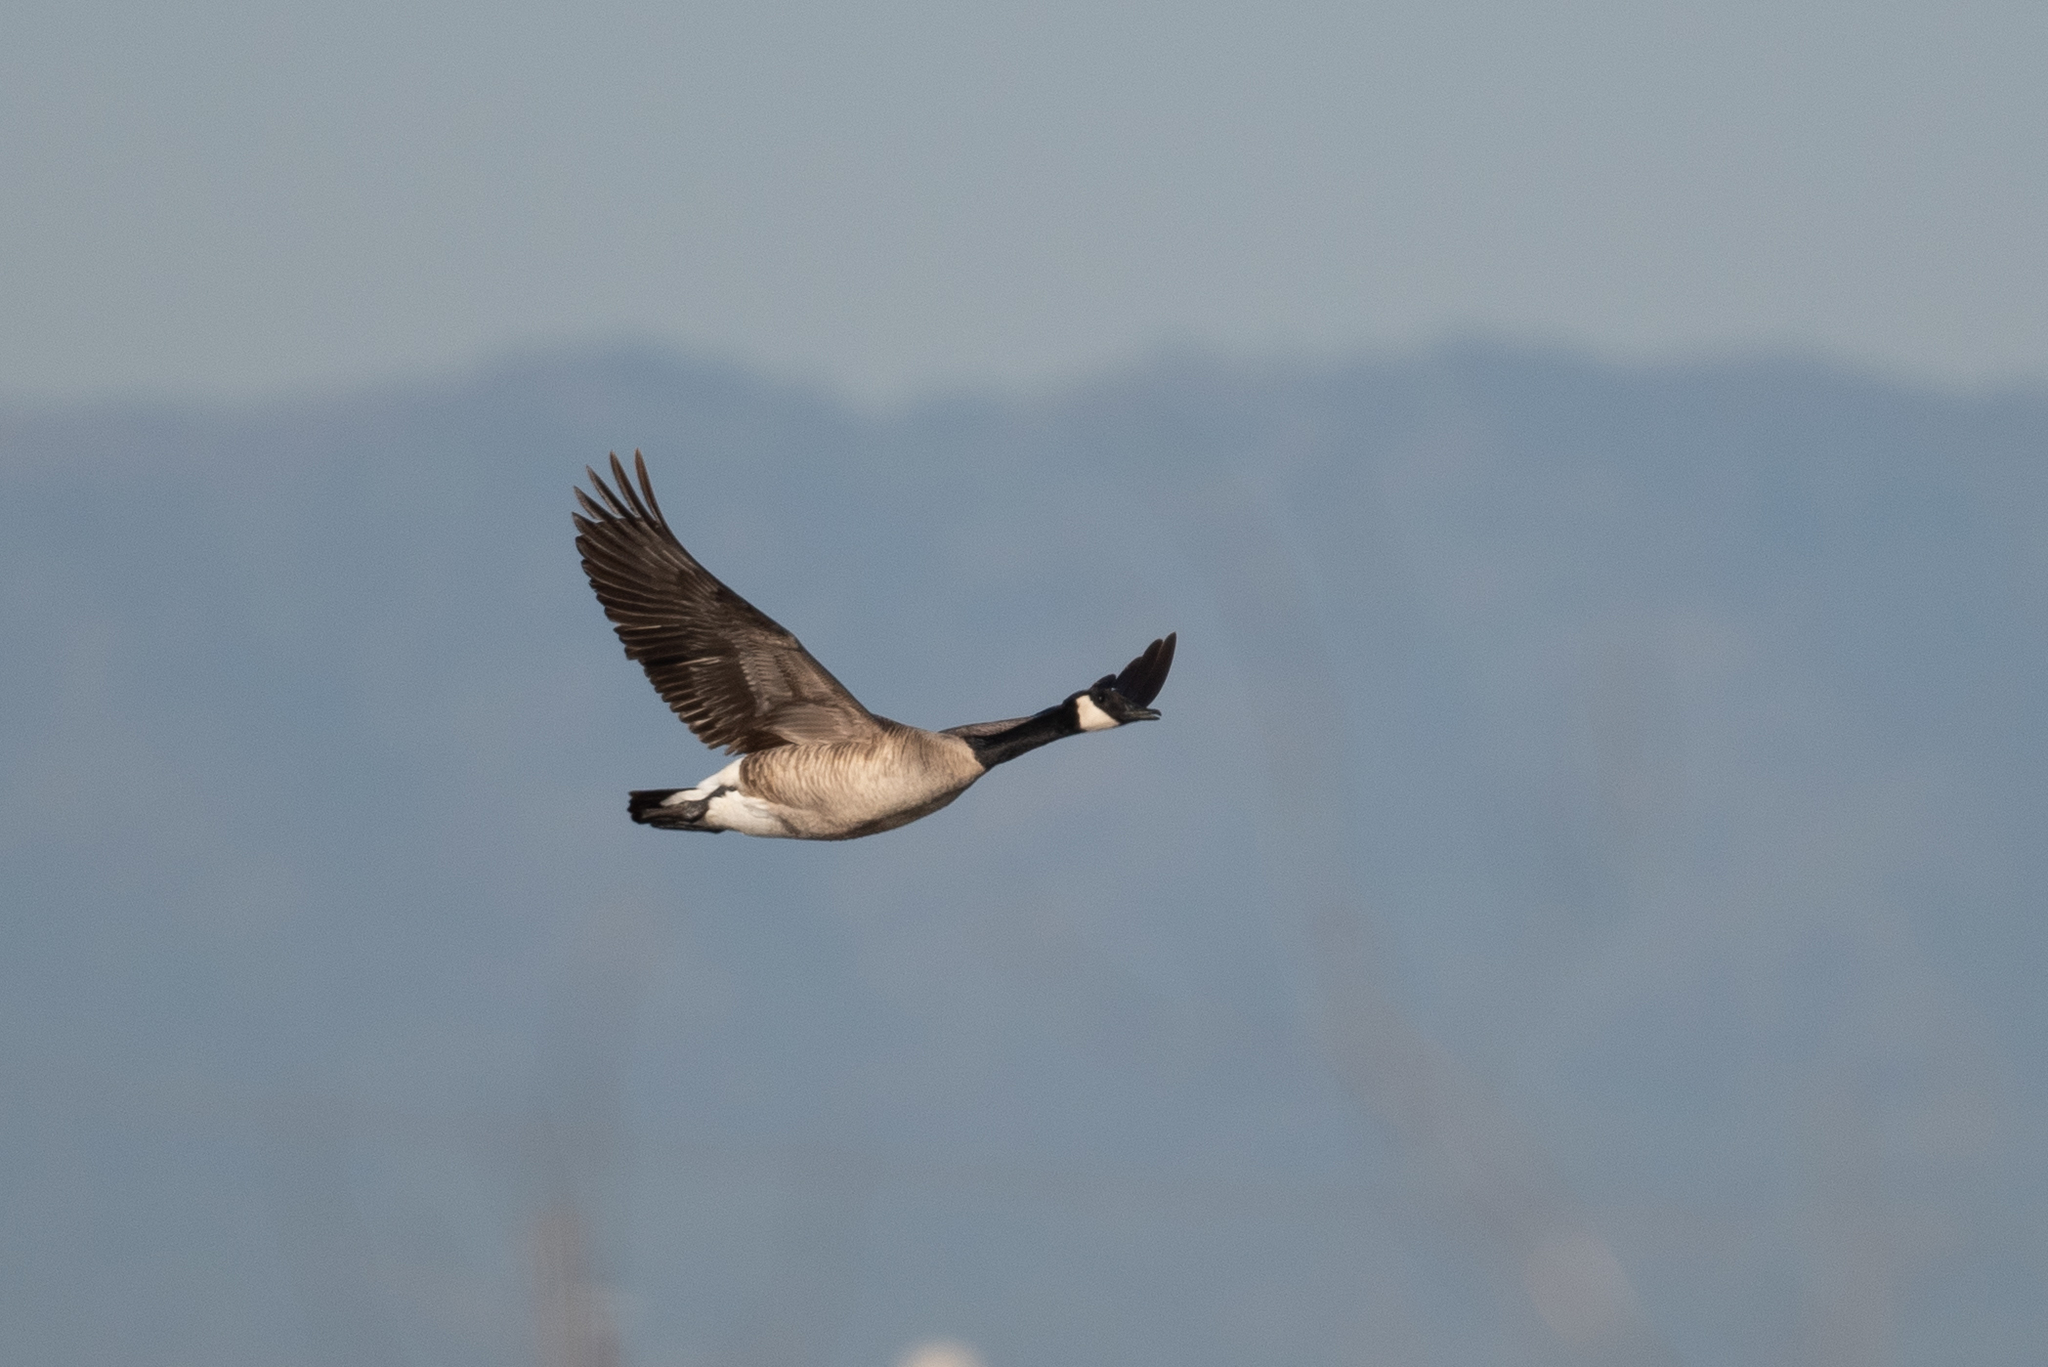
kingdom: Animalia
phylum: Chordata
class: Aves
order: Anseriformes
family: Anatidae
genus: Branta
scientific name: Branta canadensis
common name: Canada goose
